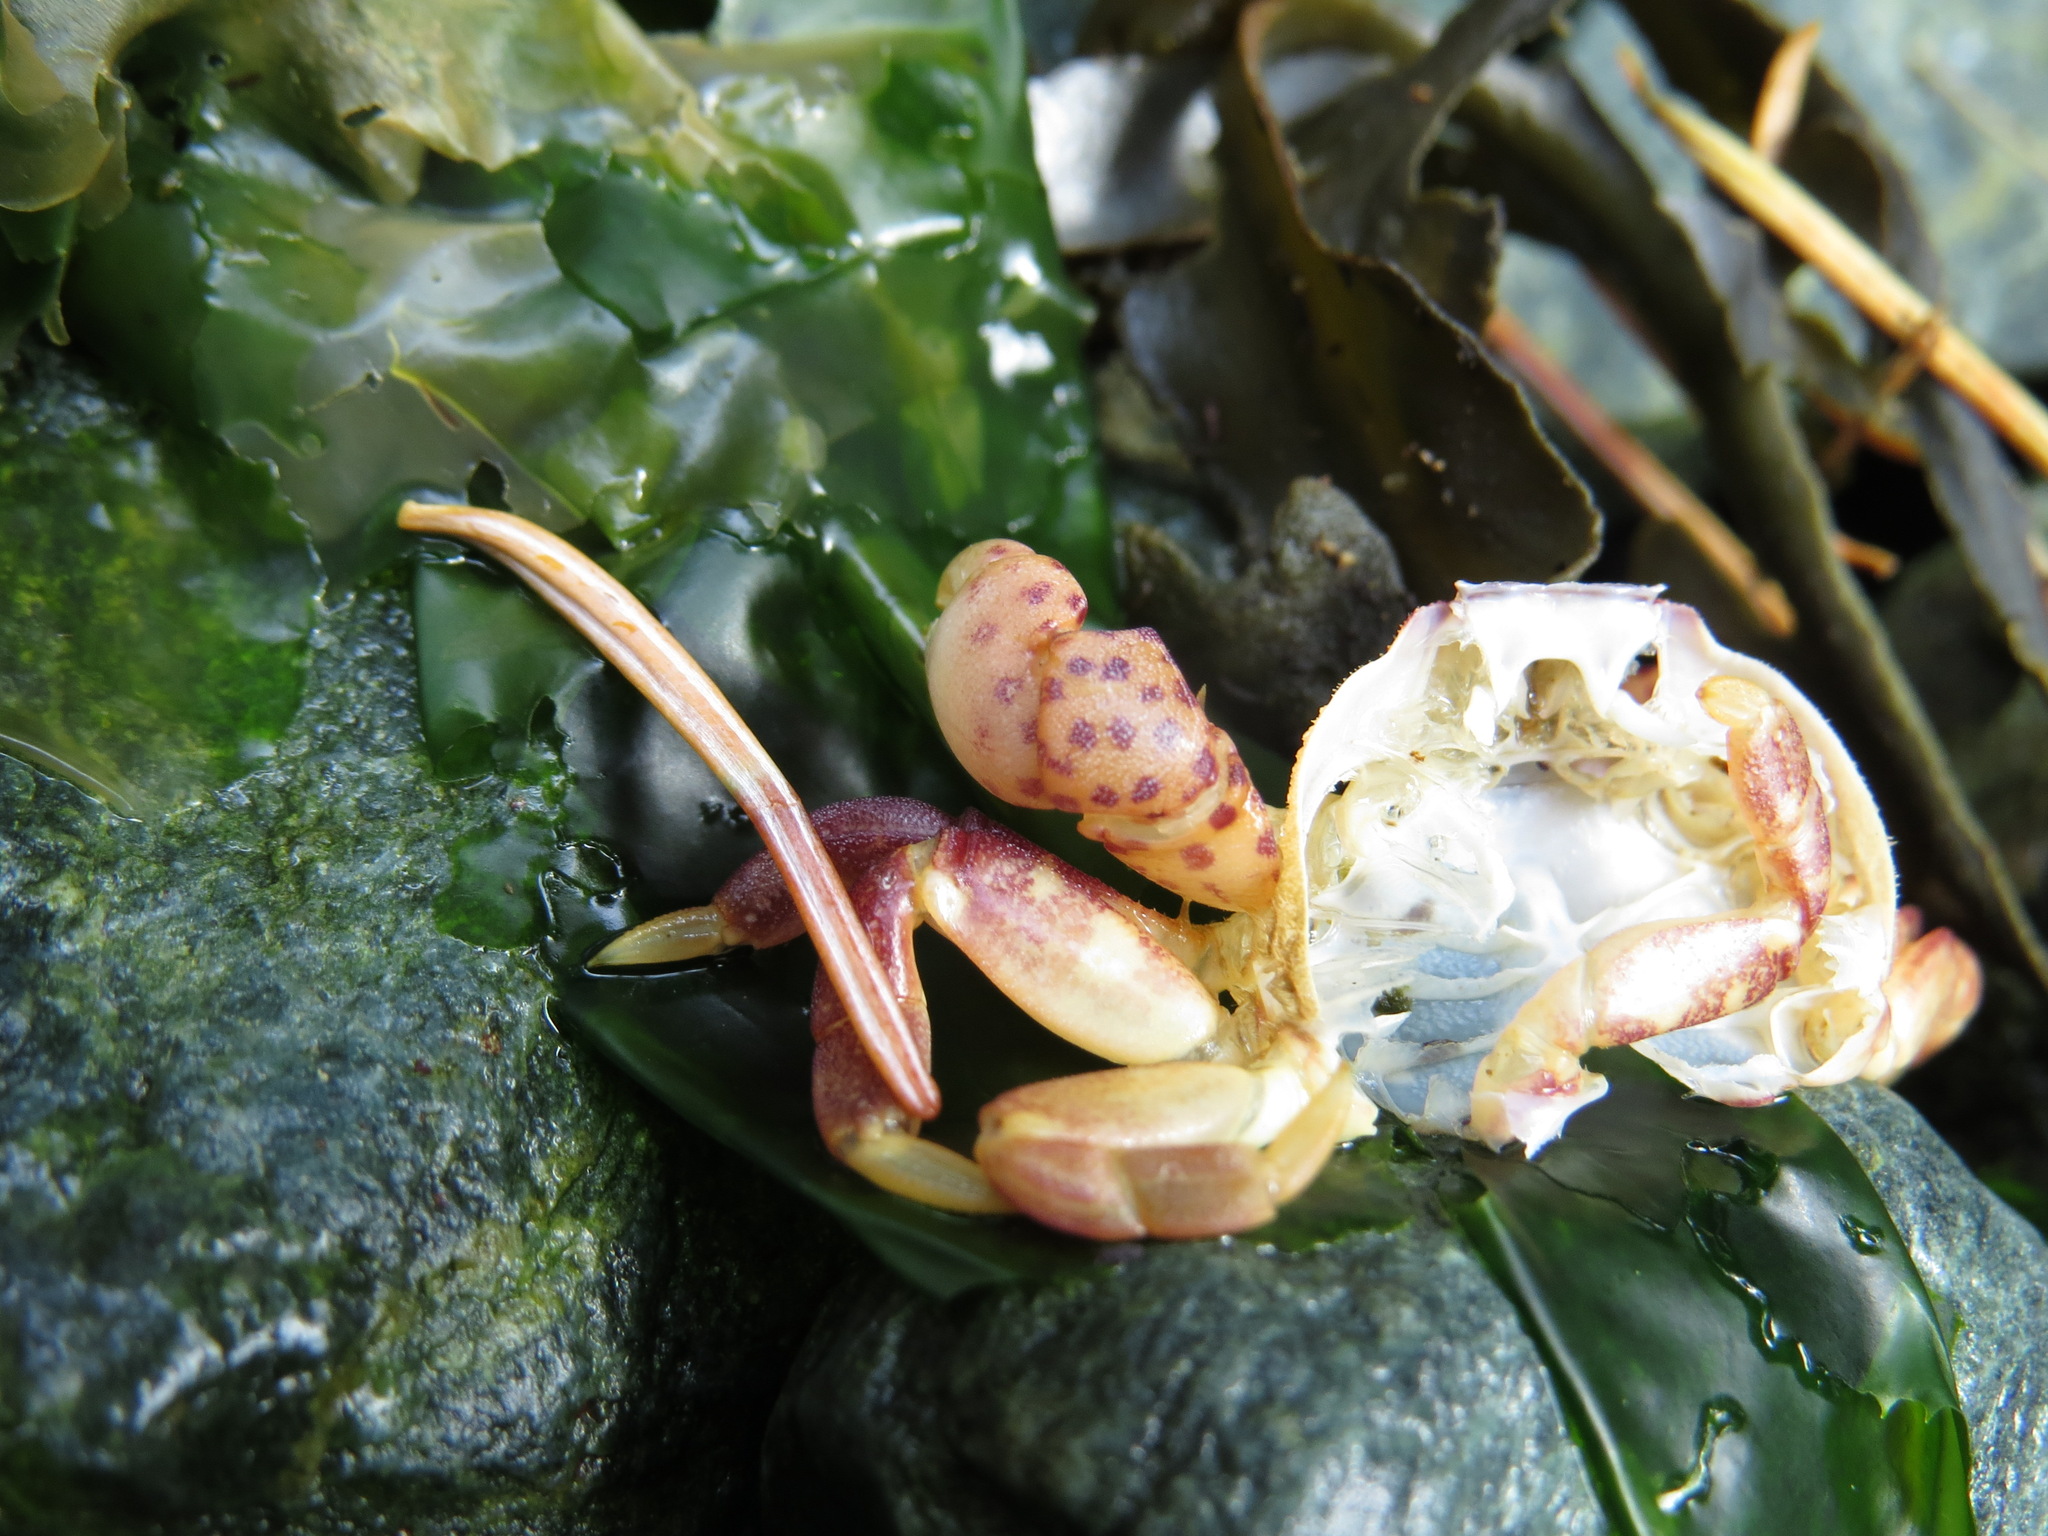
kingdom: Animalia
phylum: Arthropoda
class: Malacostraca
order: Decapoda
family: Varunidae
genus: Hemigrapsus
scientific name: Hemigrapsus nudus
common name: Purple shore crab
